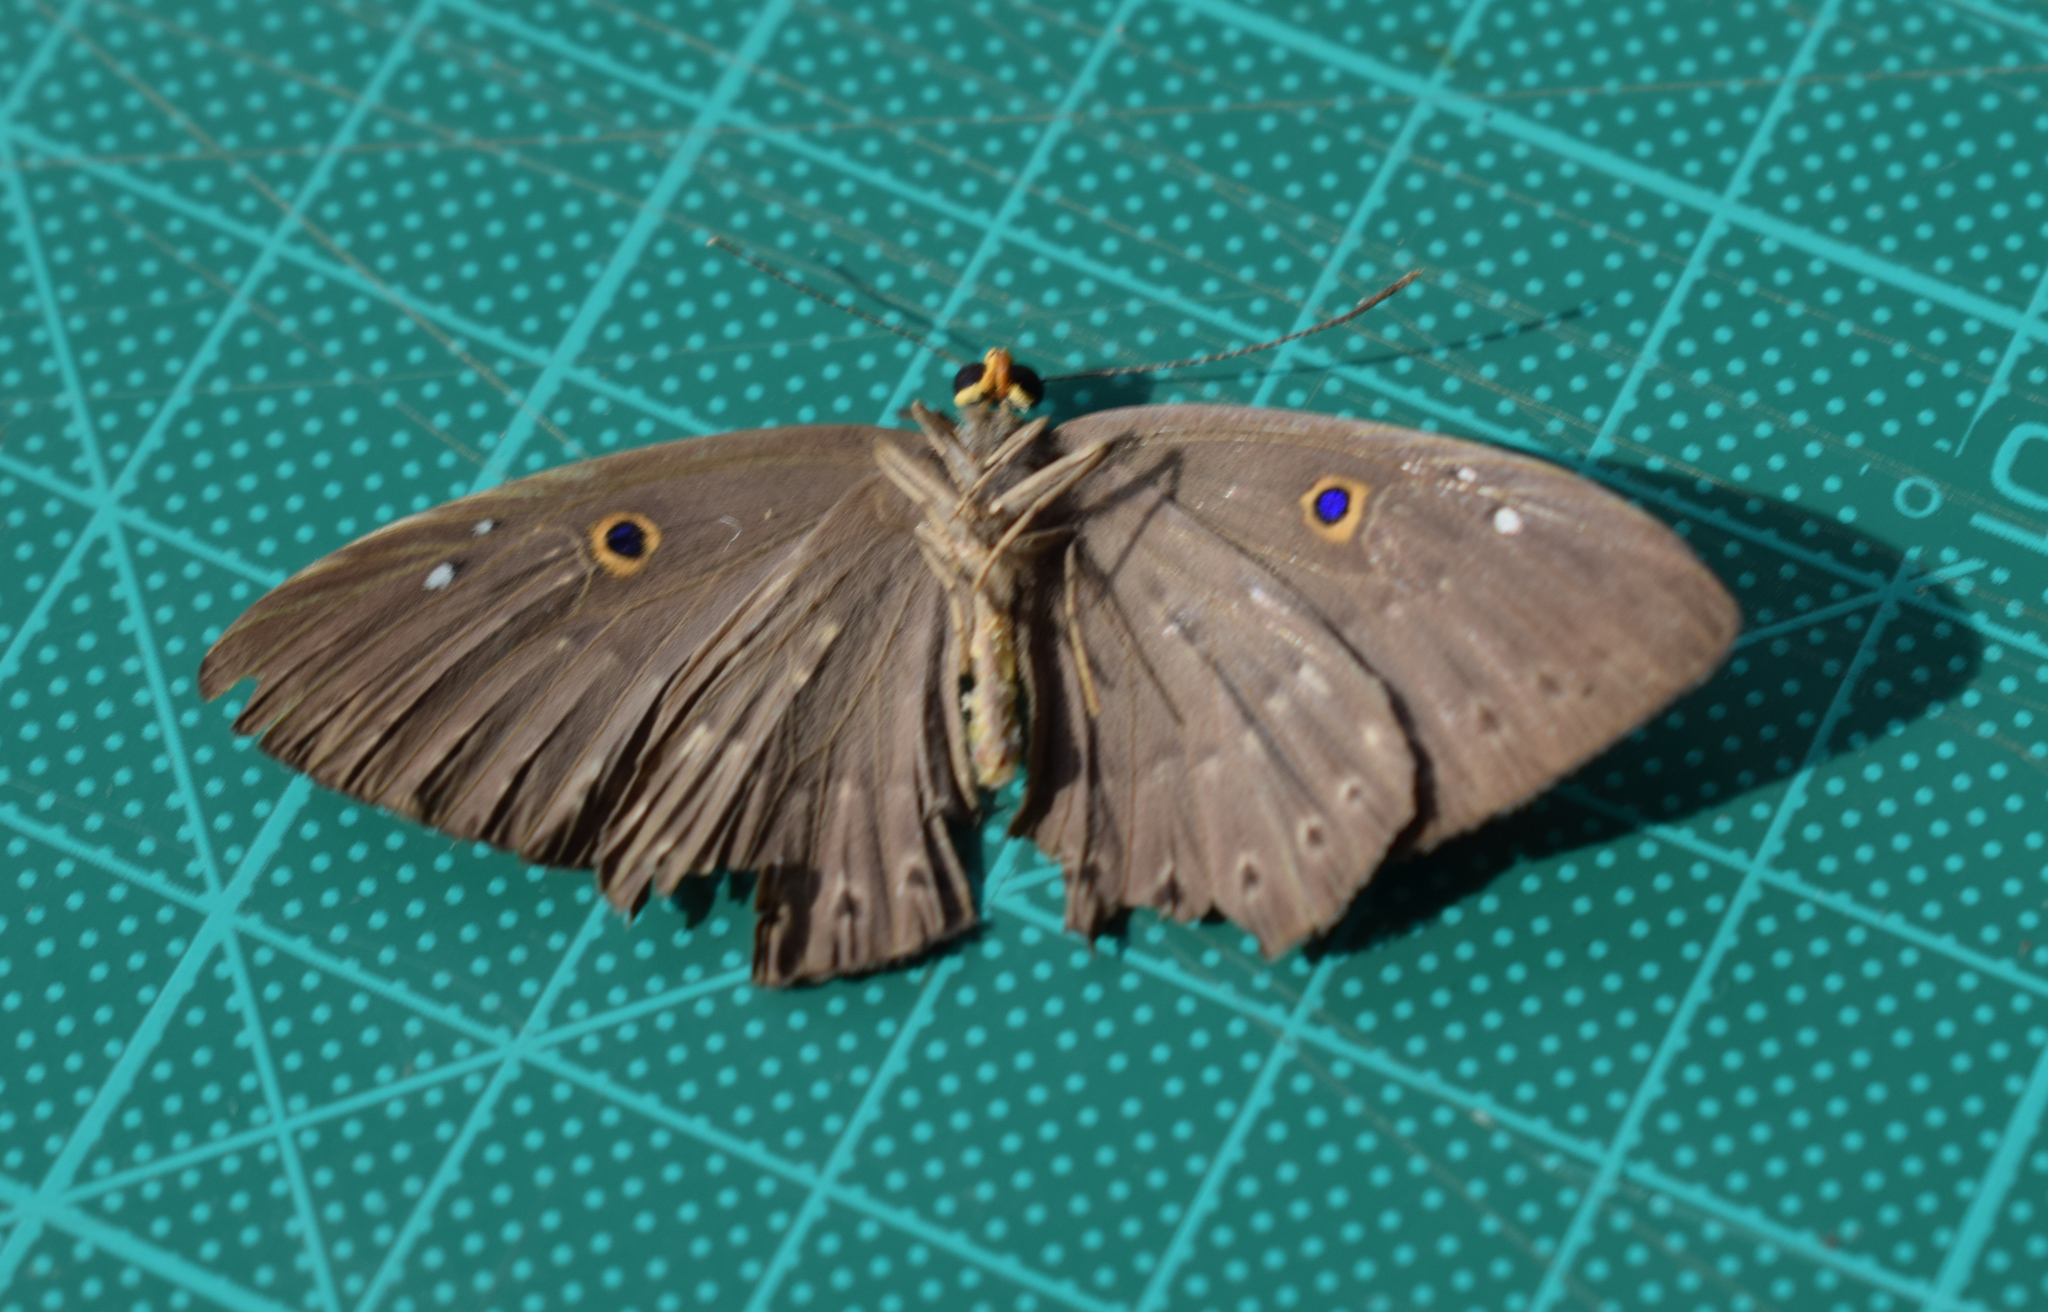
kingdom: Animalia
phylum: Cnidaria
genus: Eurybia
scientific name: Eurybia molochina
